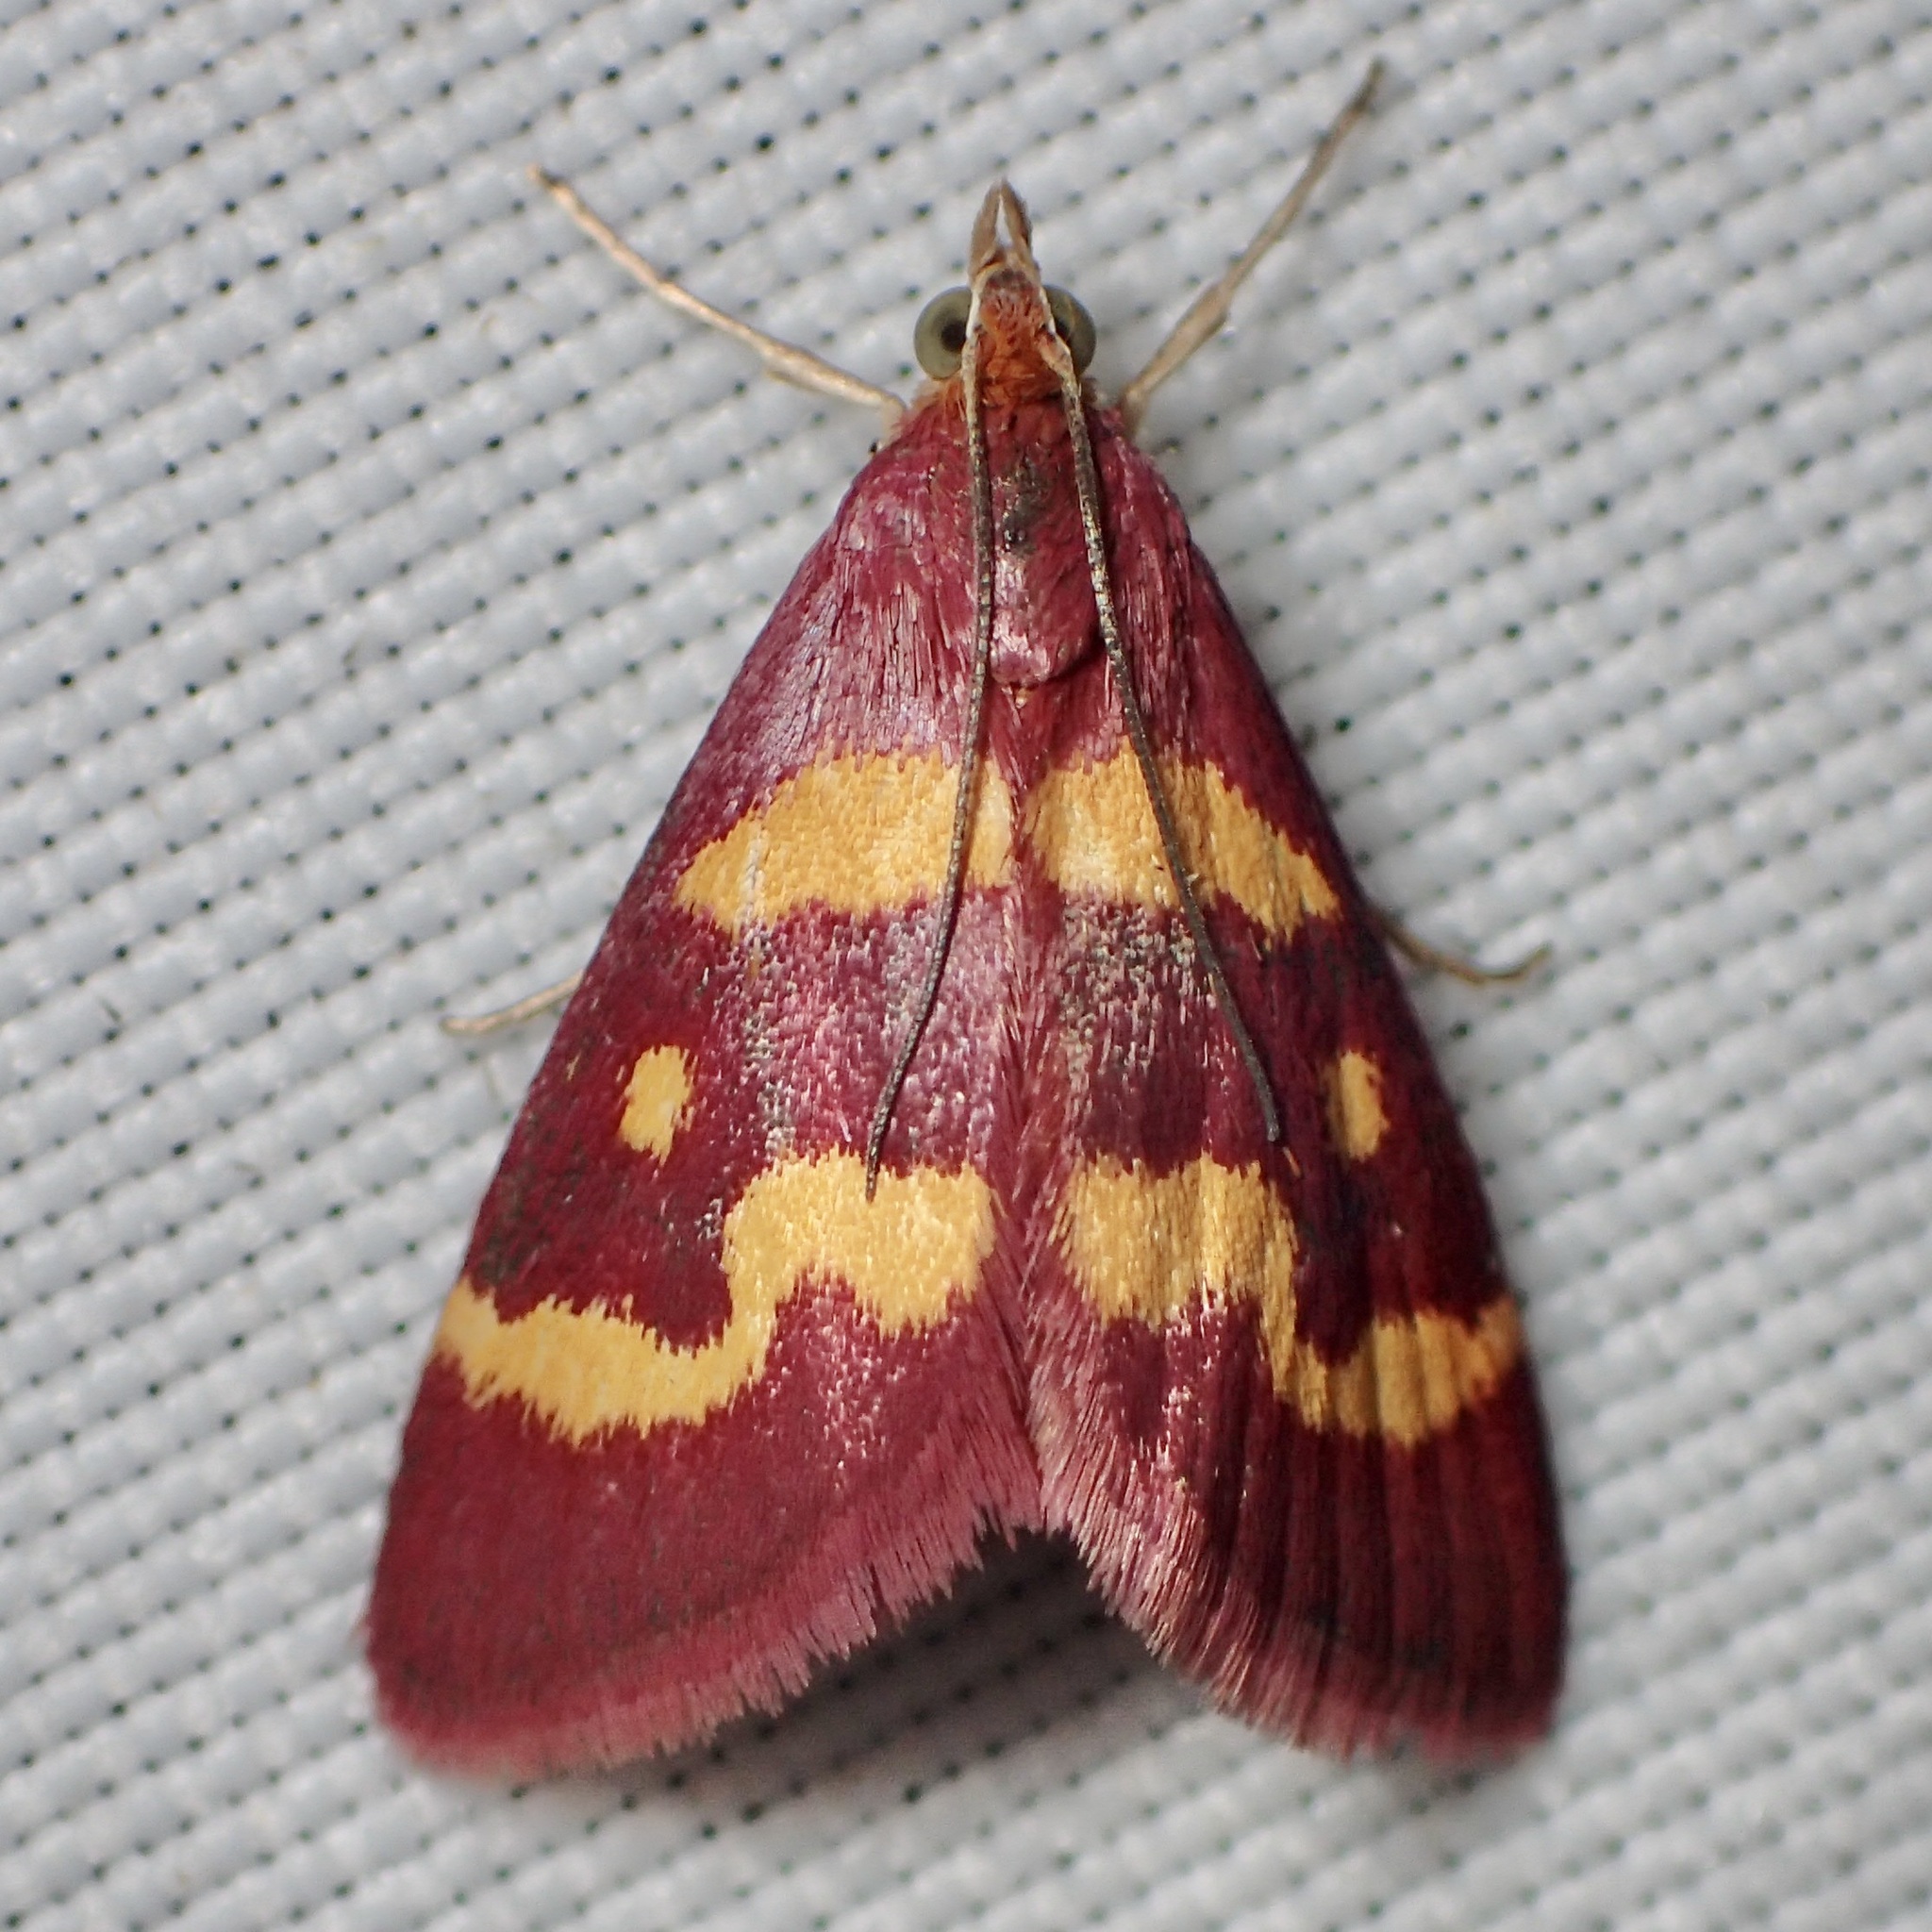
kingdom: Animalia
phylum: Arthropoda
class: Insecta
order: Lepidoptera
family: Crambidae
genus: Pyrausta
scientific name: Pyrausta tyralis
